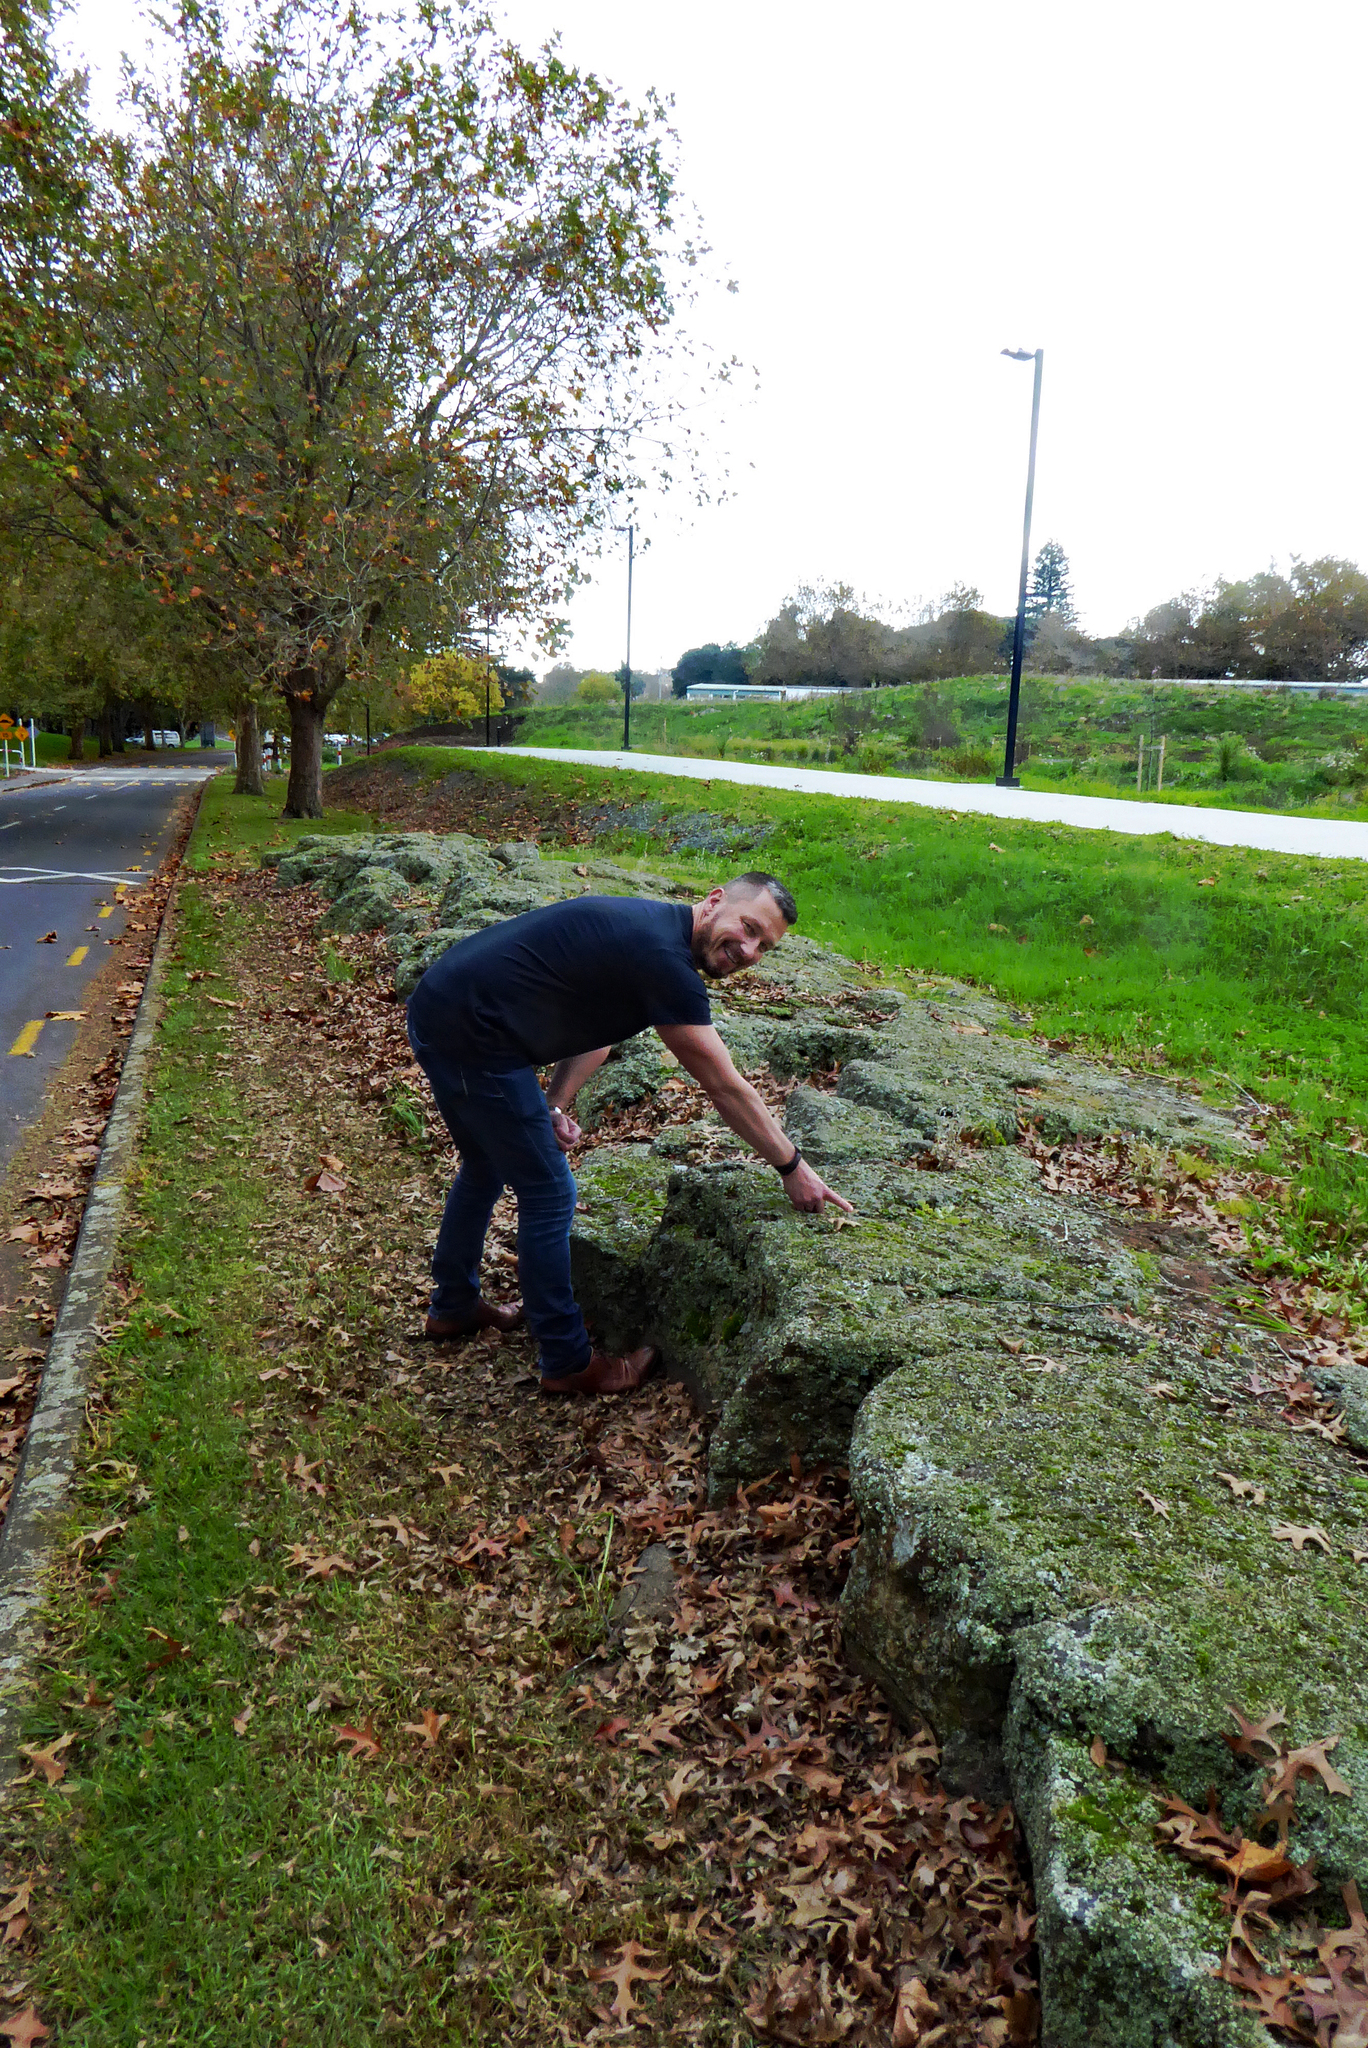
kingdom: Fungi
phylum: Ascomycota
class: Lecanoromycetes
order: Lecanorales
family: Cladoniaceae
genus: Cladia
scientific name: Cladia blanchonii
